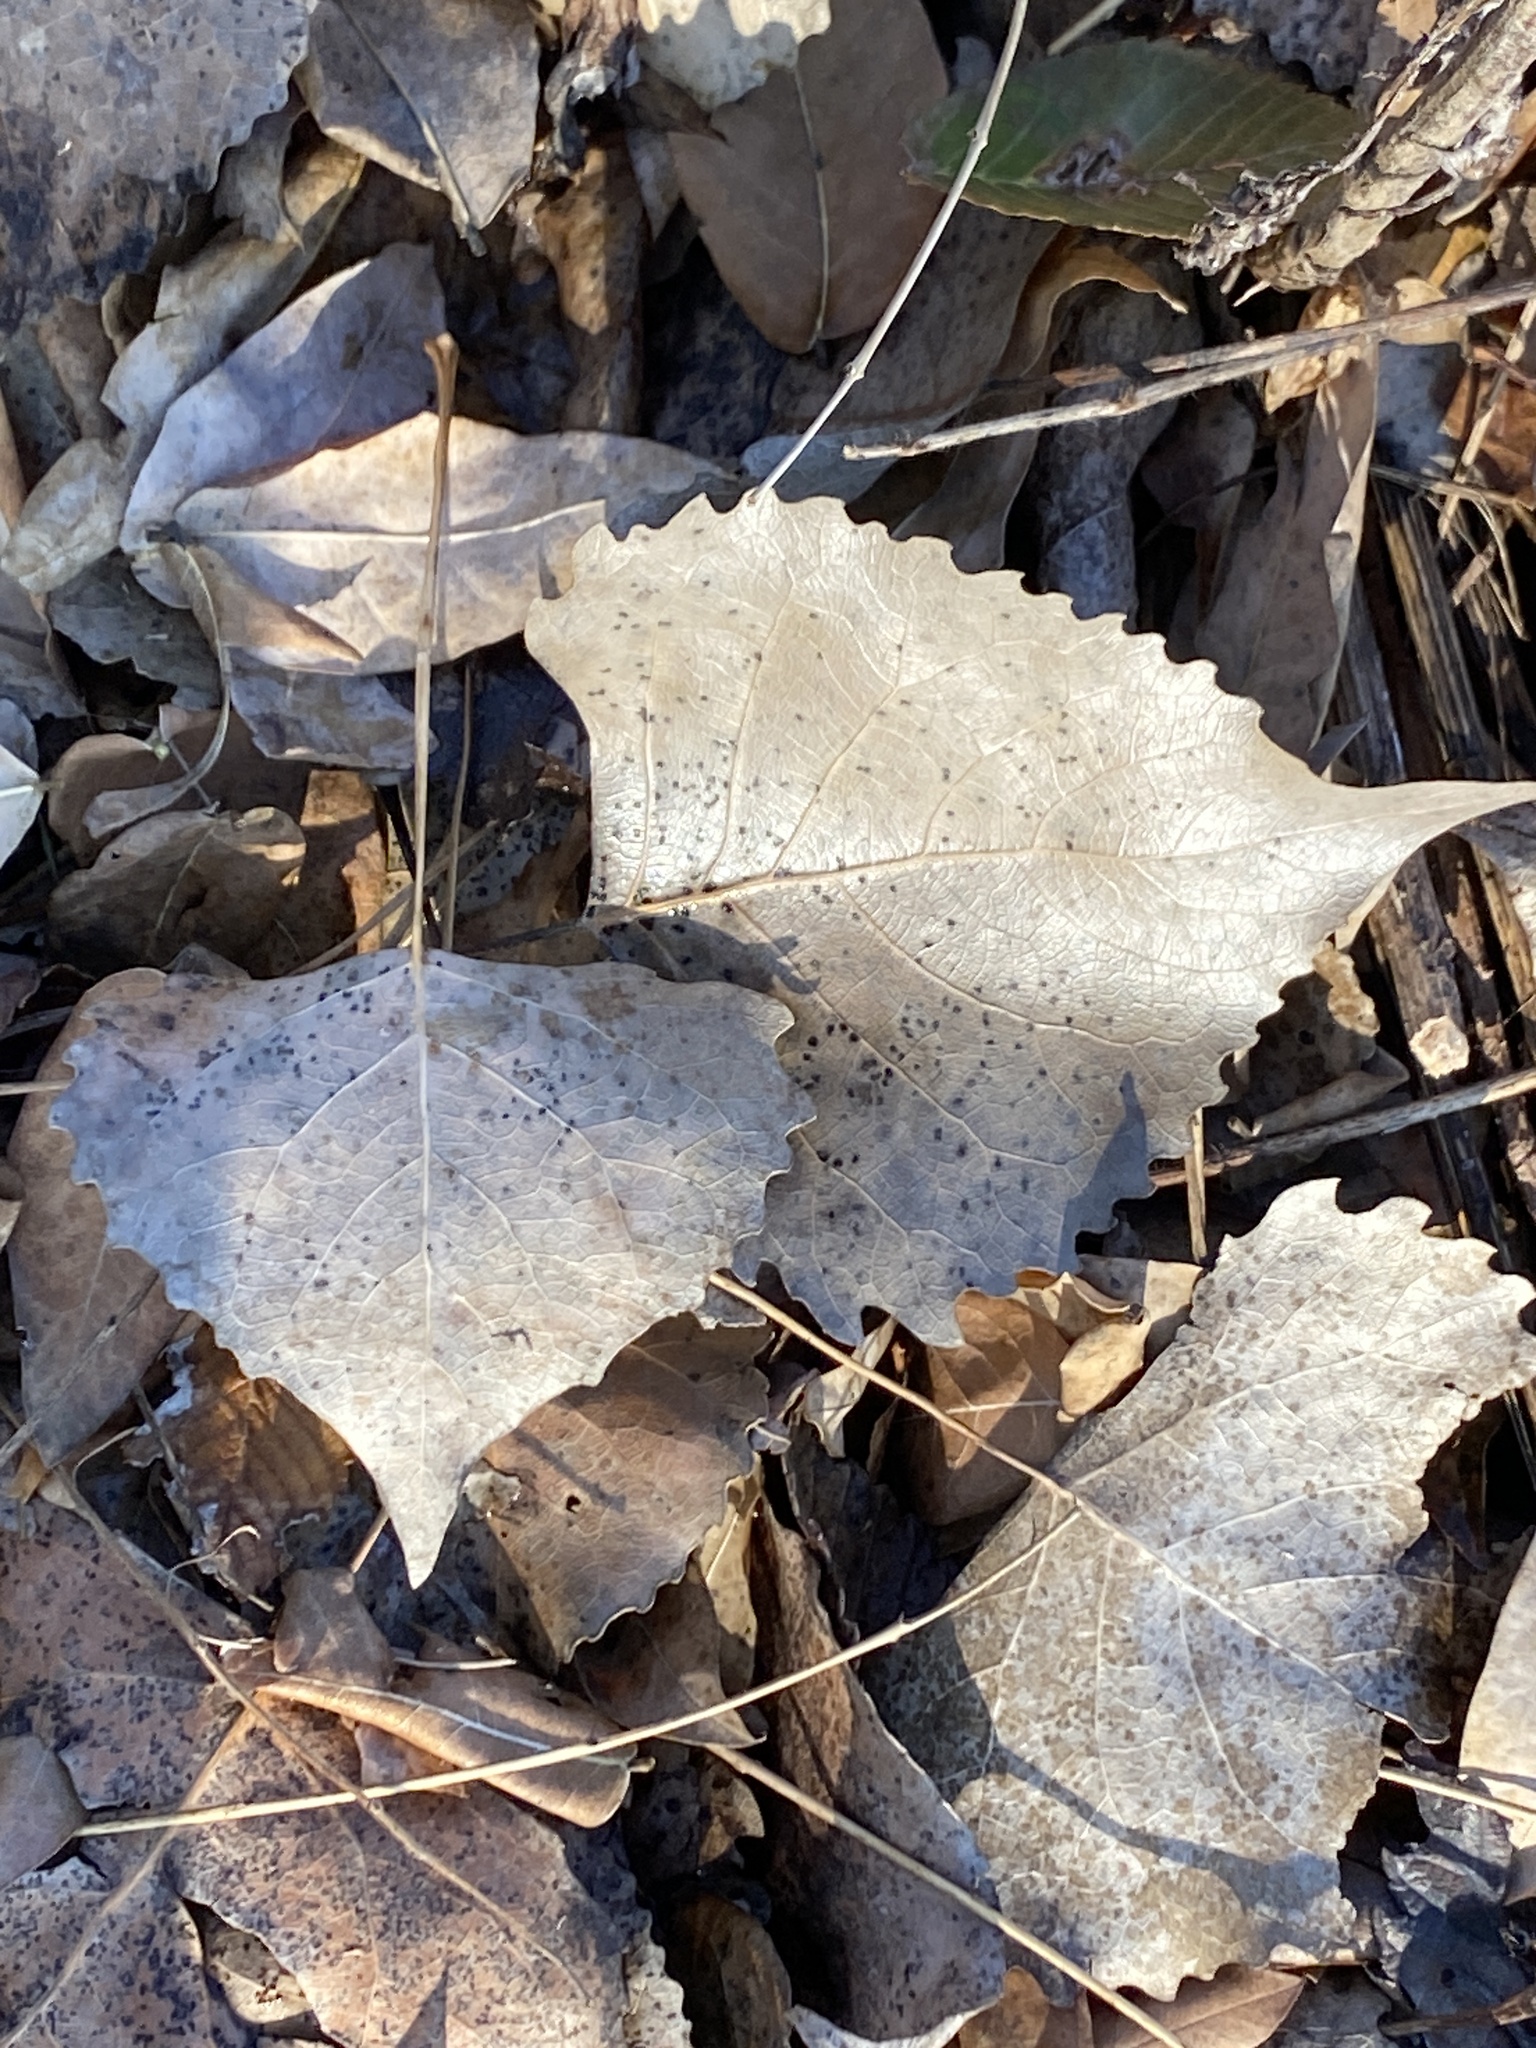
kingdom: Plantae
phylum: Tracheophyta
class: Magnoliopsida
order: Malpighiales
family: Salicaceae
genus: Populus
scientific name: Populus deltoides
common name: Eastern cottonwood
